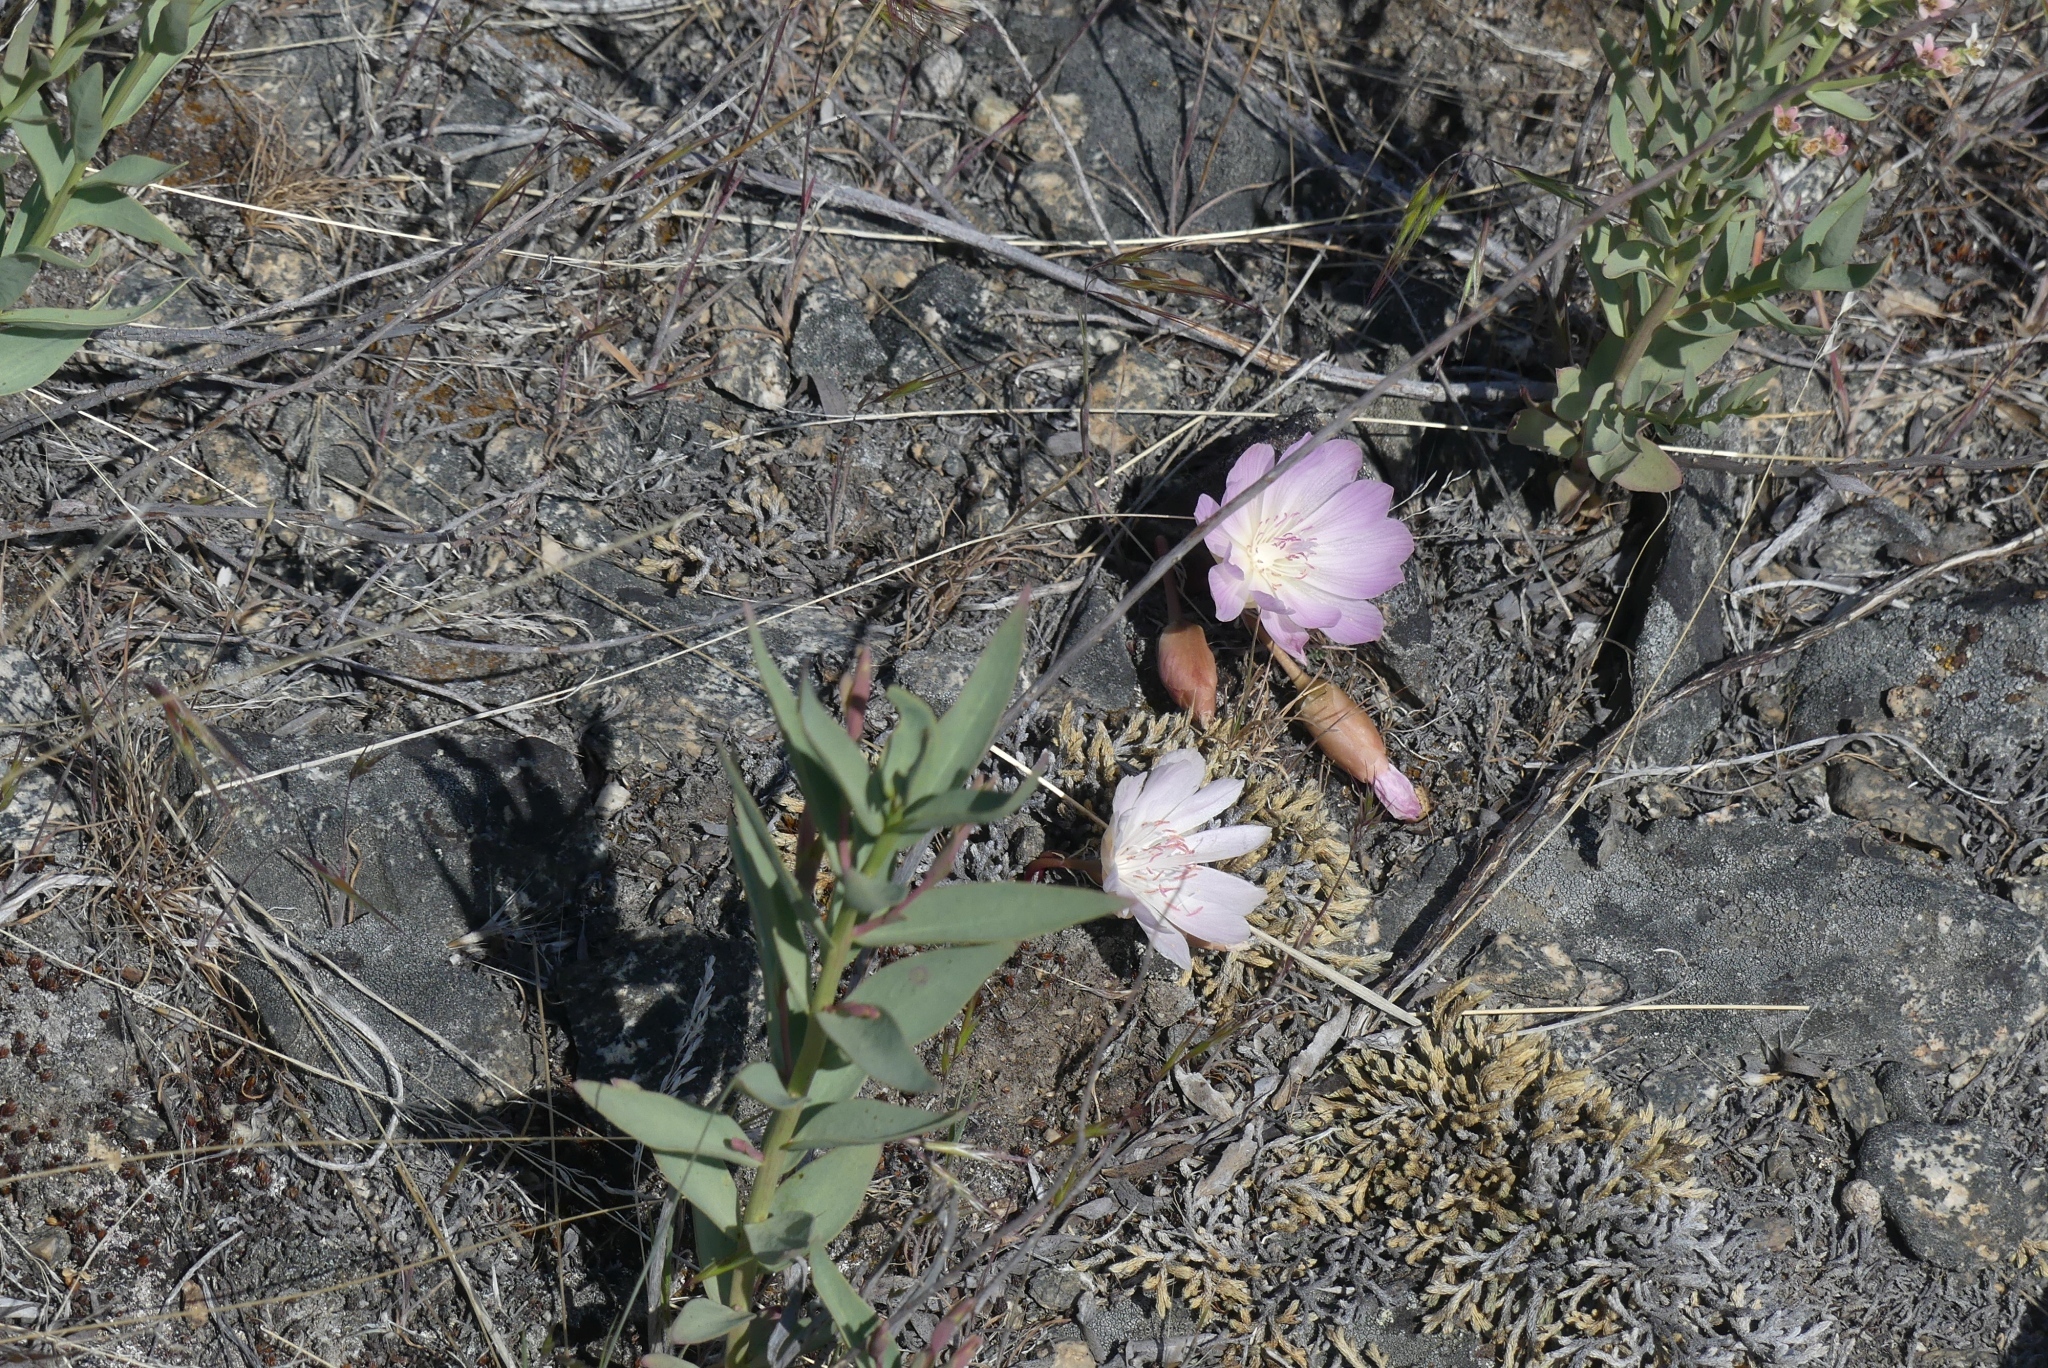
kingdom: Plantae
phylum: Tracheophyta
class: Magnoliopsida
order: Caryophyllales
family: Montiaceae
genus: Lewisia
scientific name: Lewisia rediviva
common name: Bitter-root
